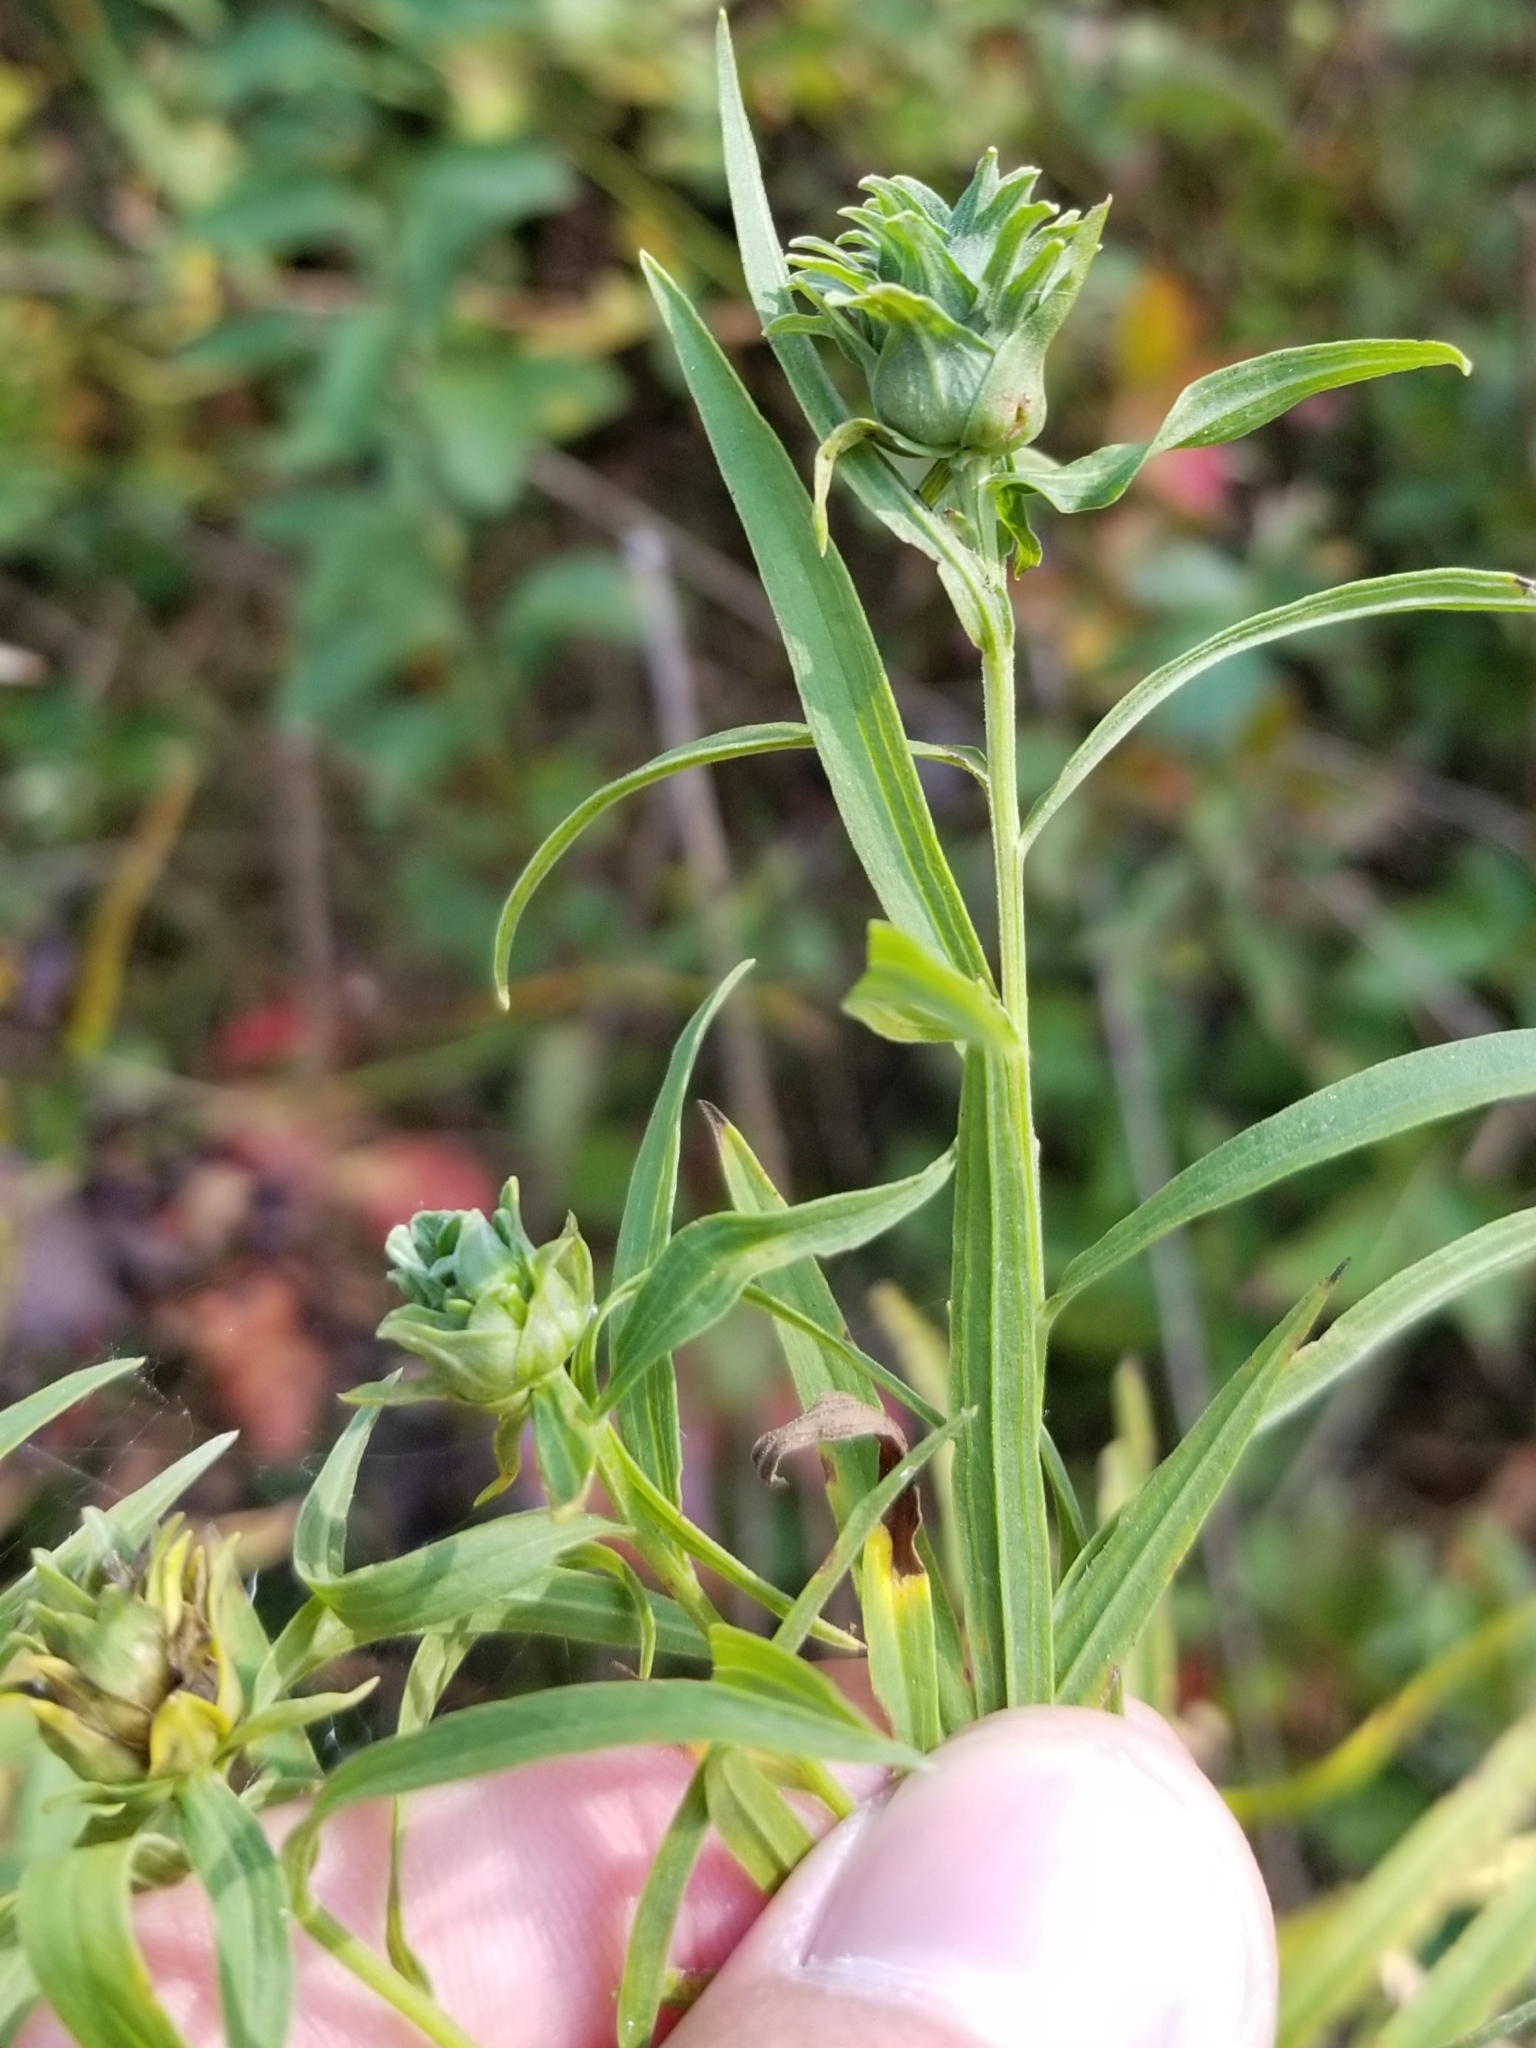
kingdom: Animalia
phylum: Arthropoda
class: Insecta
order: Diptera
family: Cecidomyiidae
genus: Asphondylia
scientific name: Asphondylia pseudorosa
